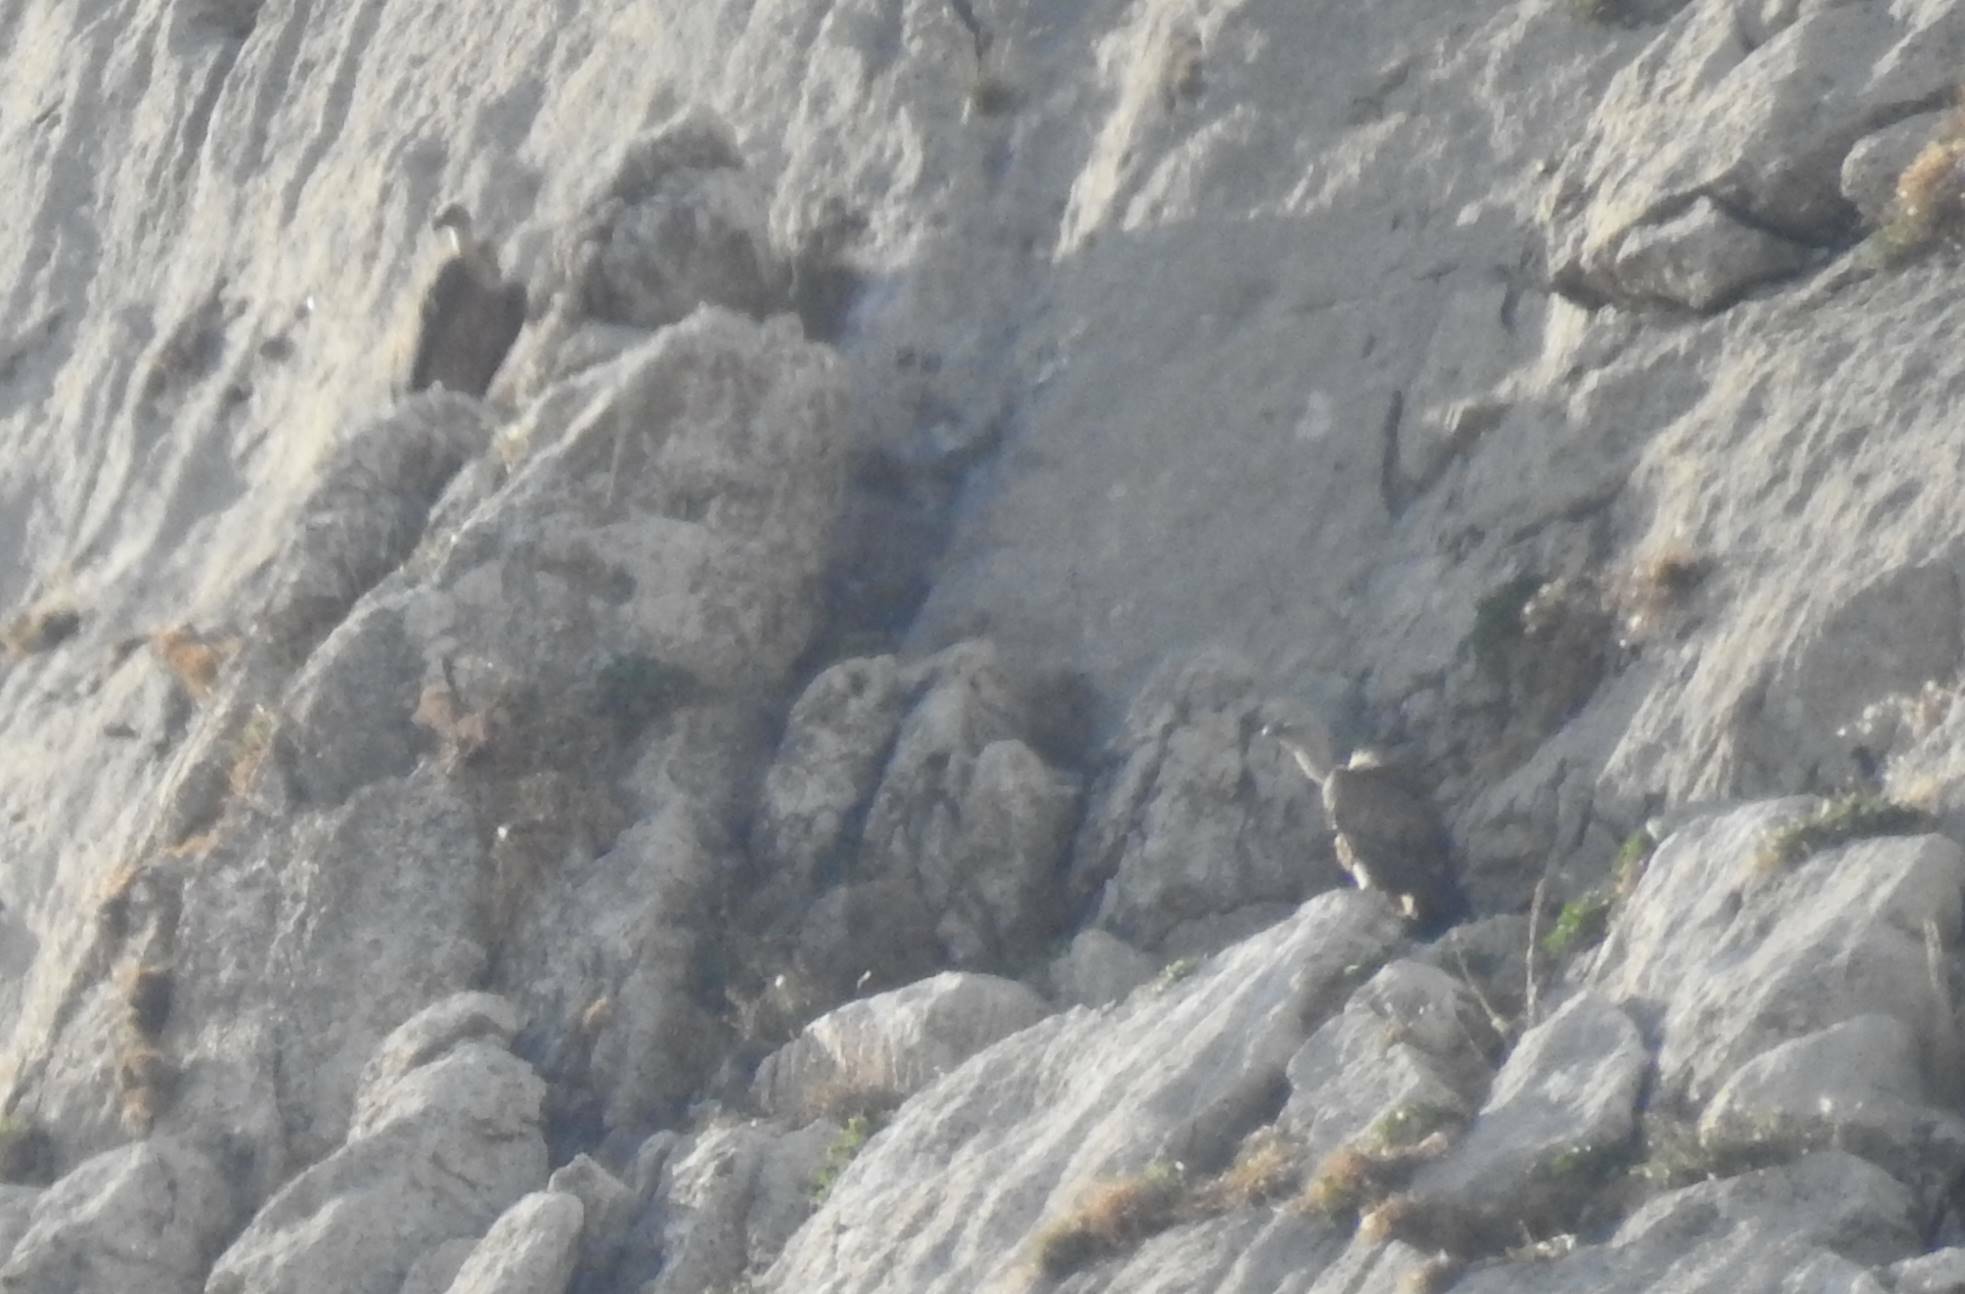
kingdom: Animalia
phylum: Chordata
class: Aves
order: Accipitriformes
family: Accipitridae
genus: Gyps
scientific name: Gyps fulvus
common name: Griffon vulture
